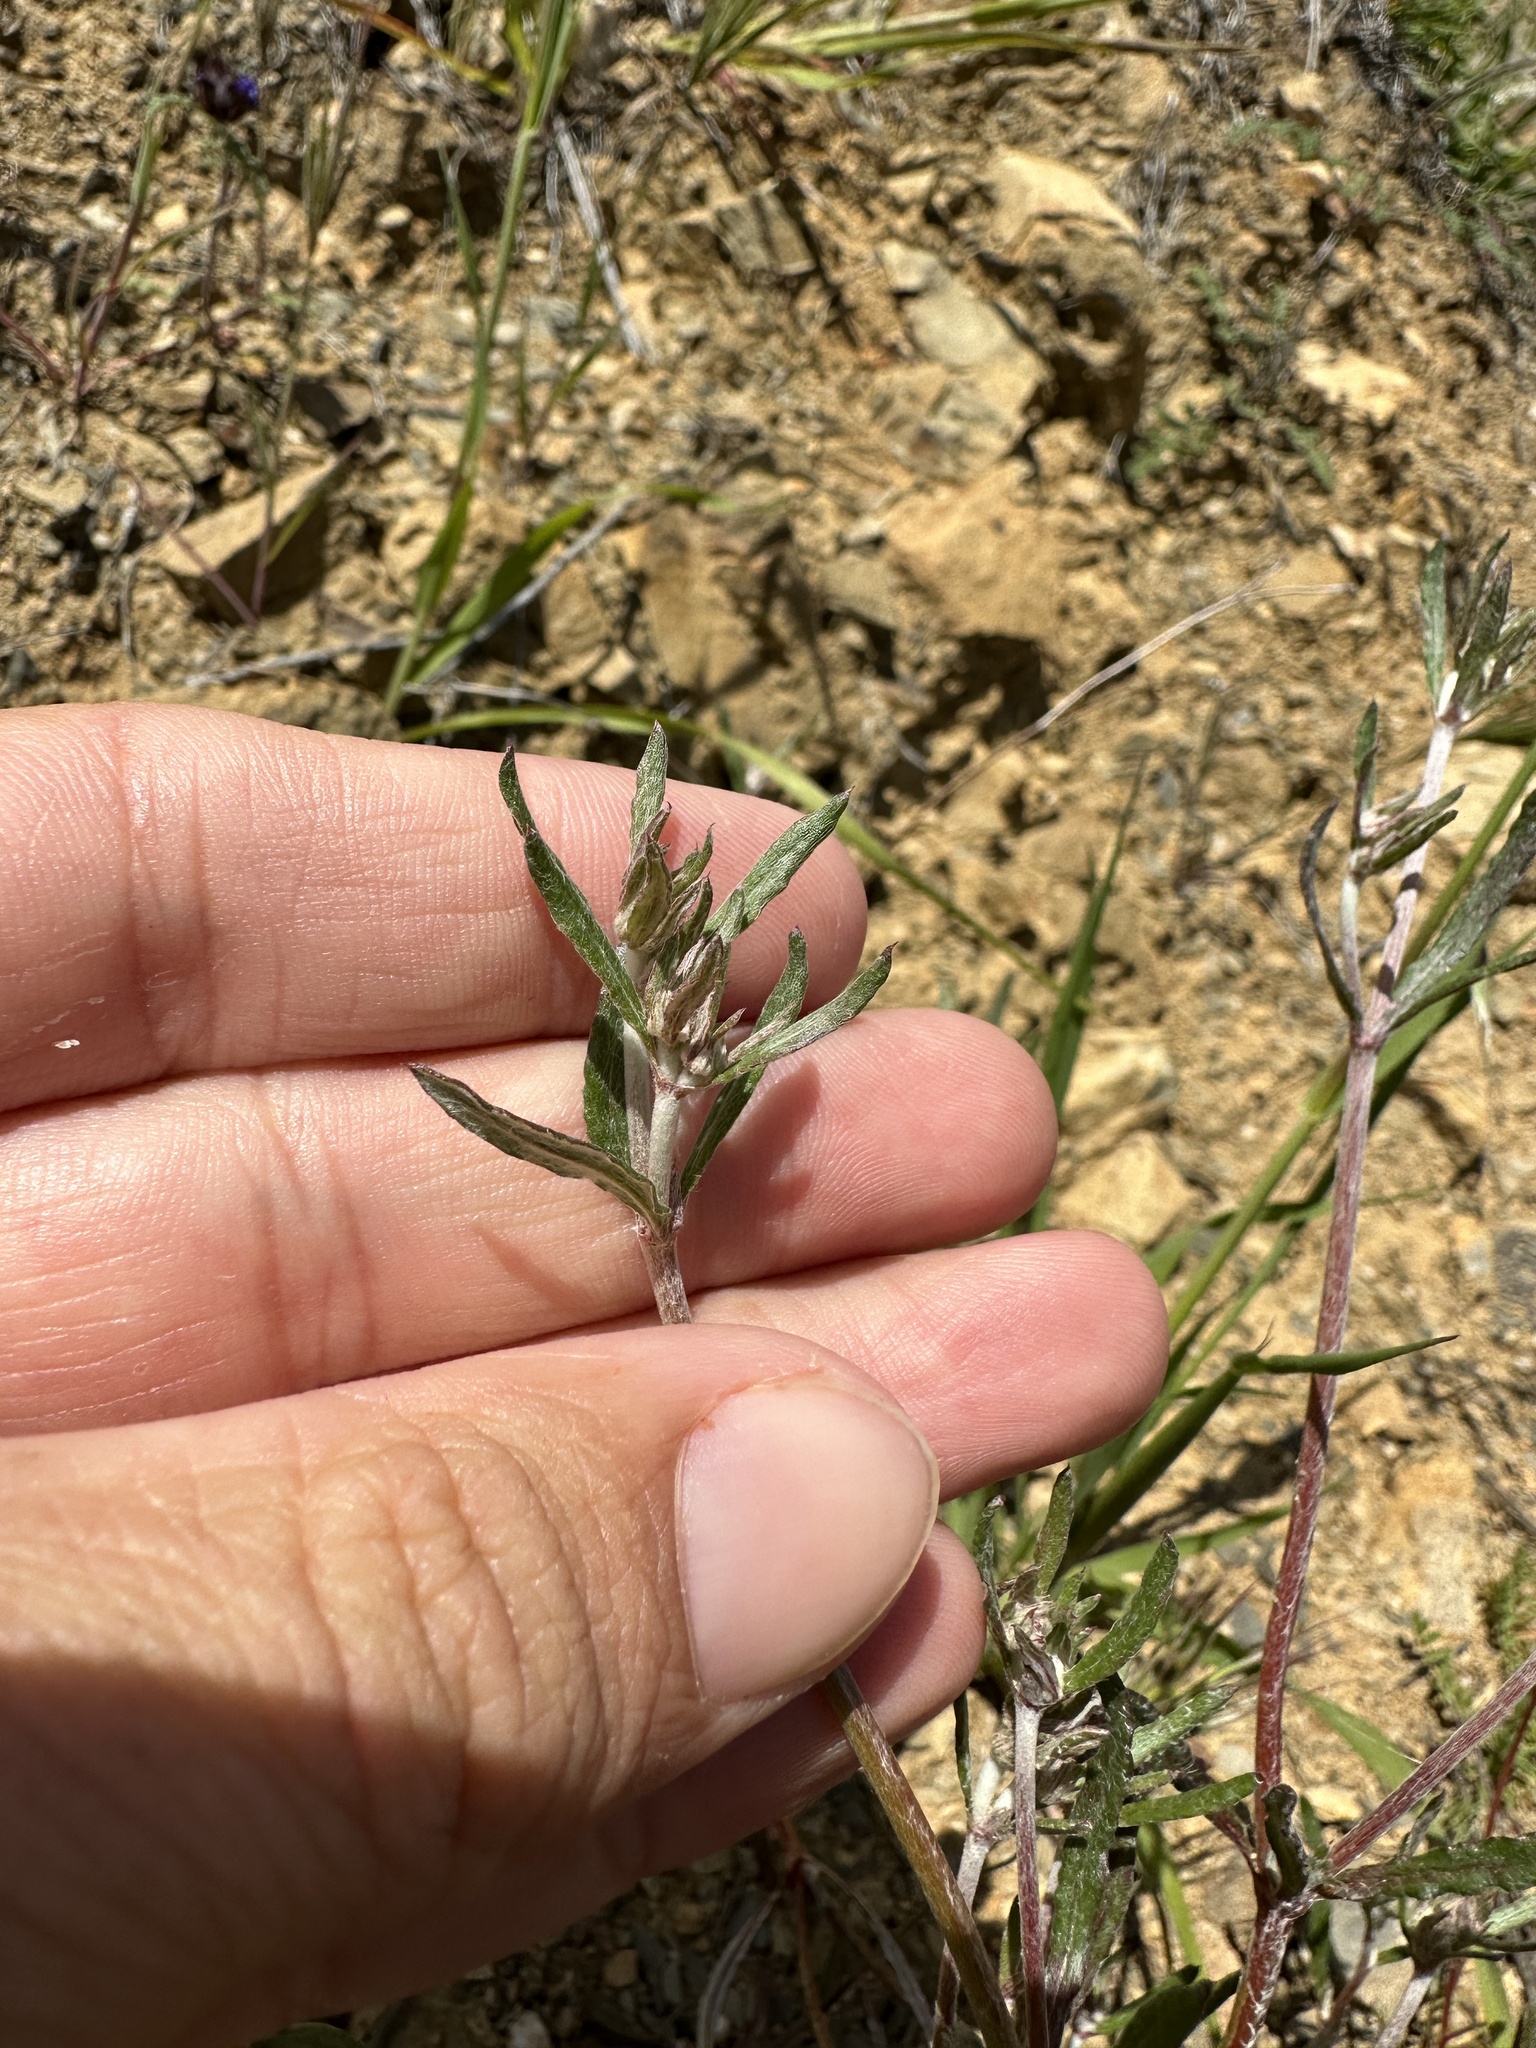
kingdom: Plantae
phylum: Tracheophyta
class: Magnoliopsida
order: Caryophyllales
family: Polygonaceae
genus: Chorizanthe
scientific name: Chorizanthe membranacea
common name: Pink spineflower
